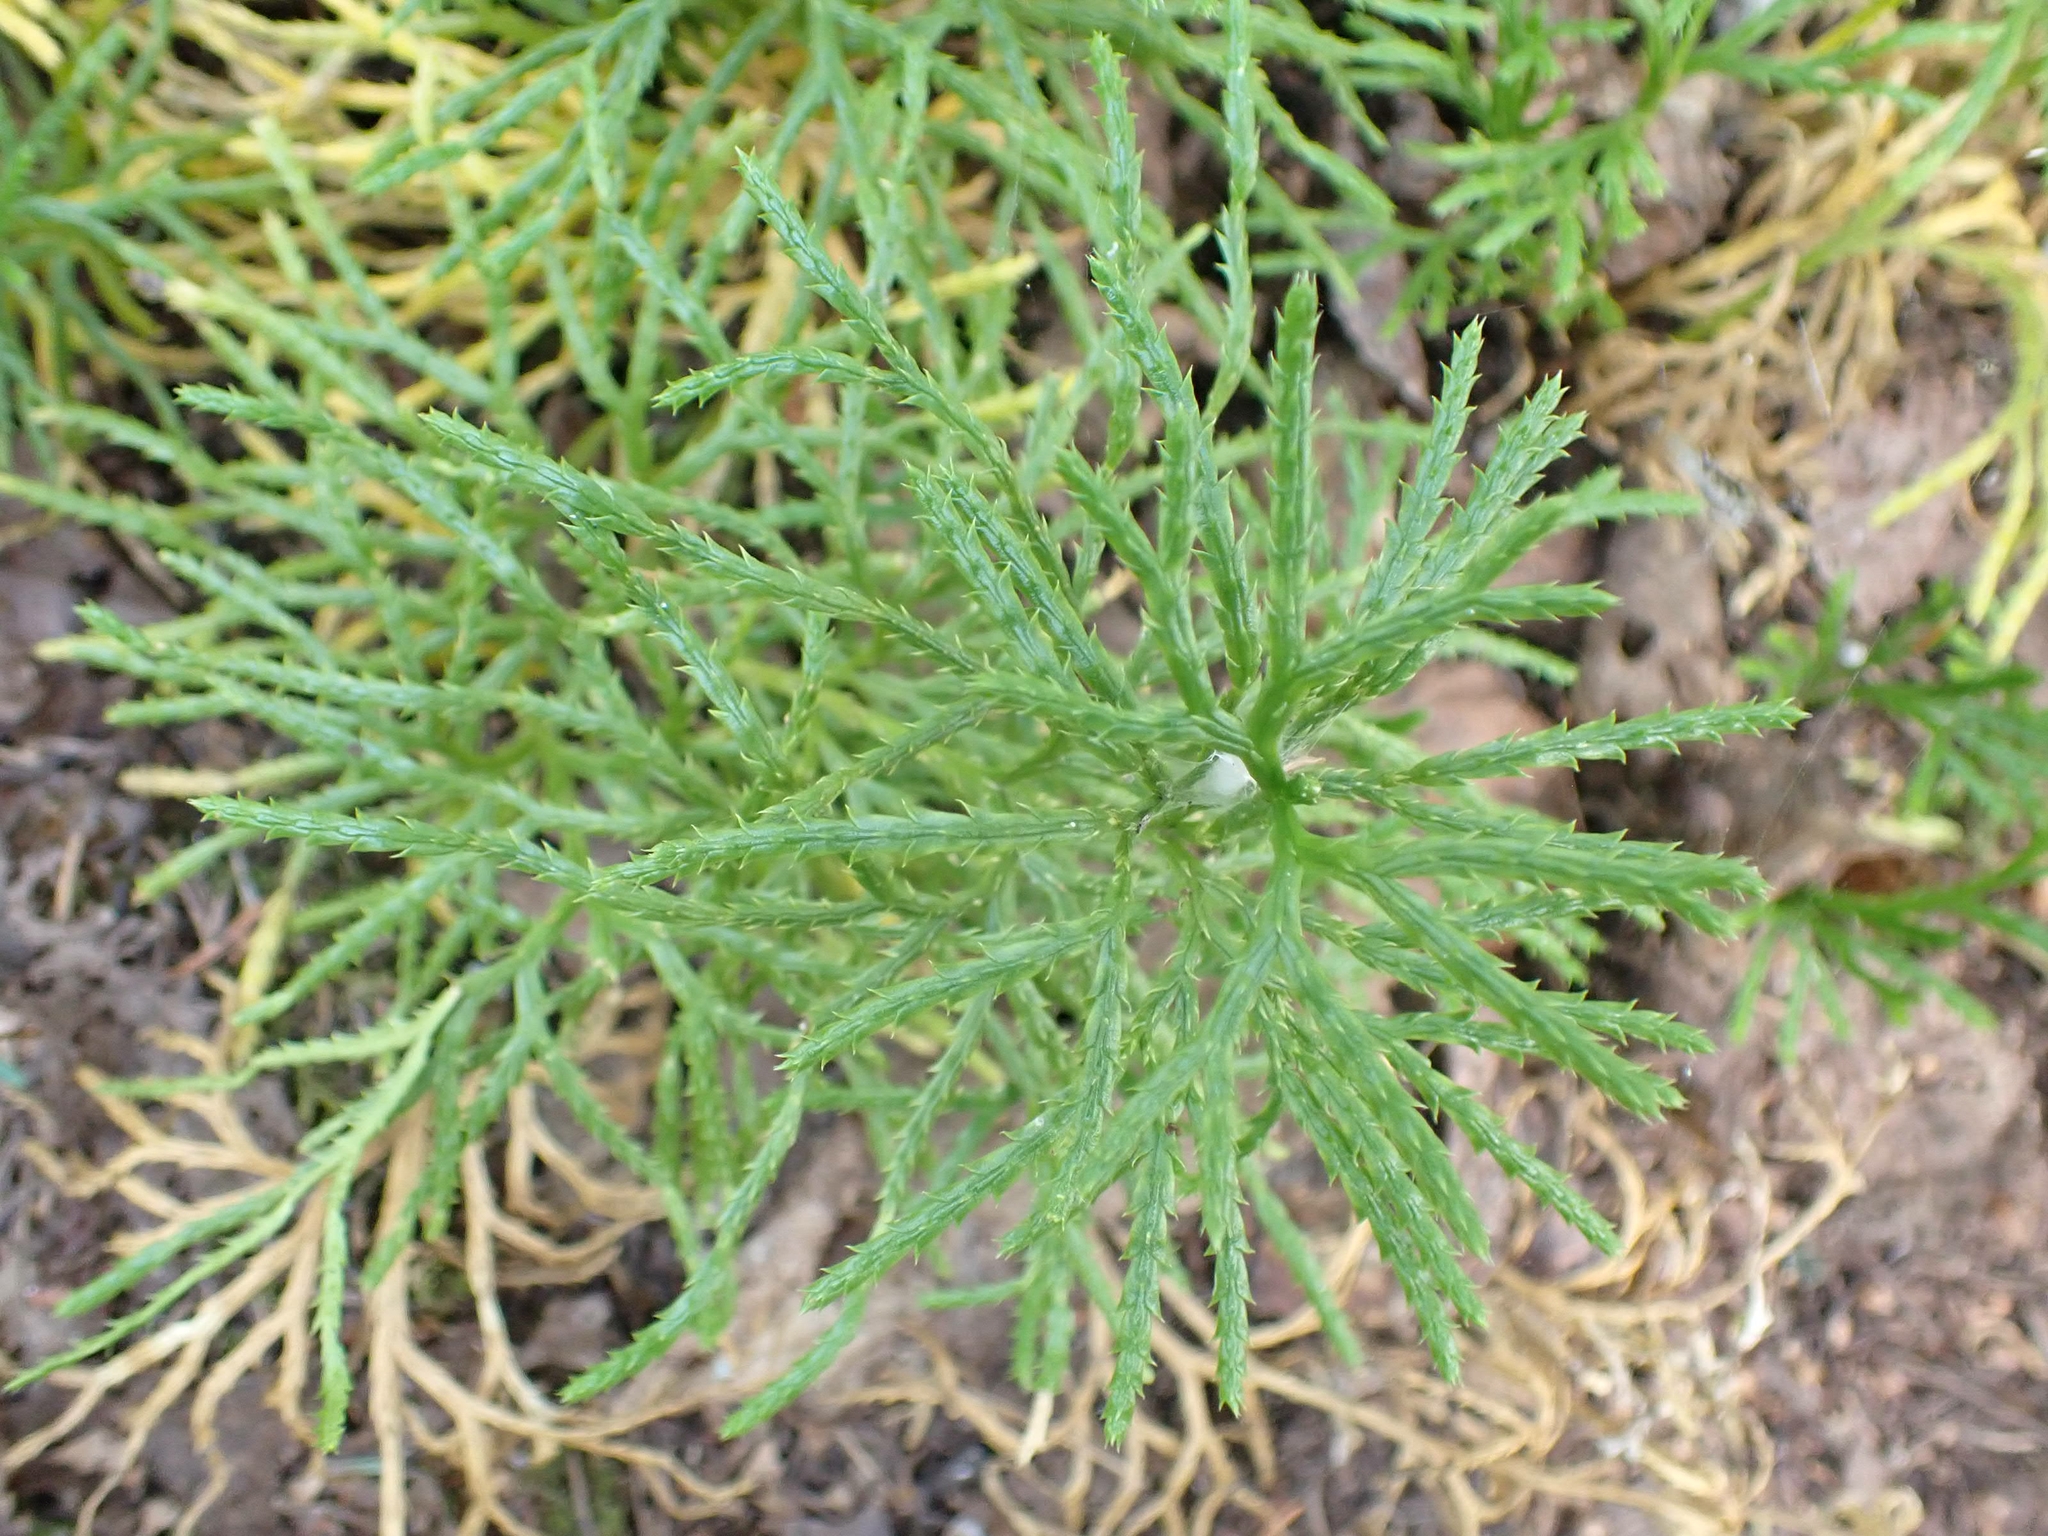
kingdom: Plantae
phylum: Tracheophyta
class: Lycopodiopsida
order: Lycopodiales
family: Lycopodiaceae
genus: Diphasiastrum
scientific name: Diphasiastrum complanatum
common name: Northern running-pine
